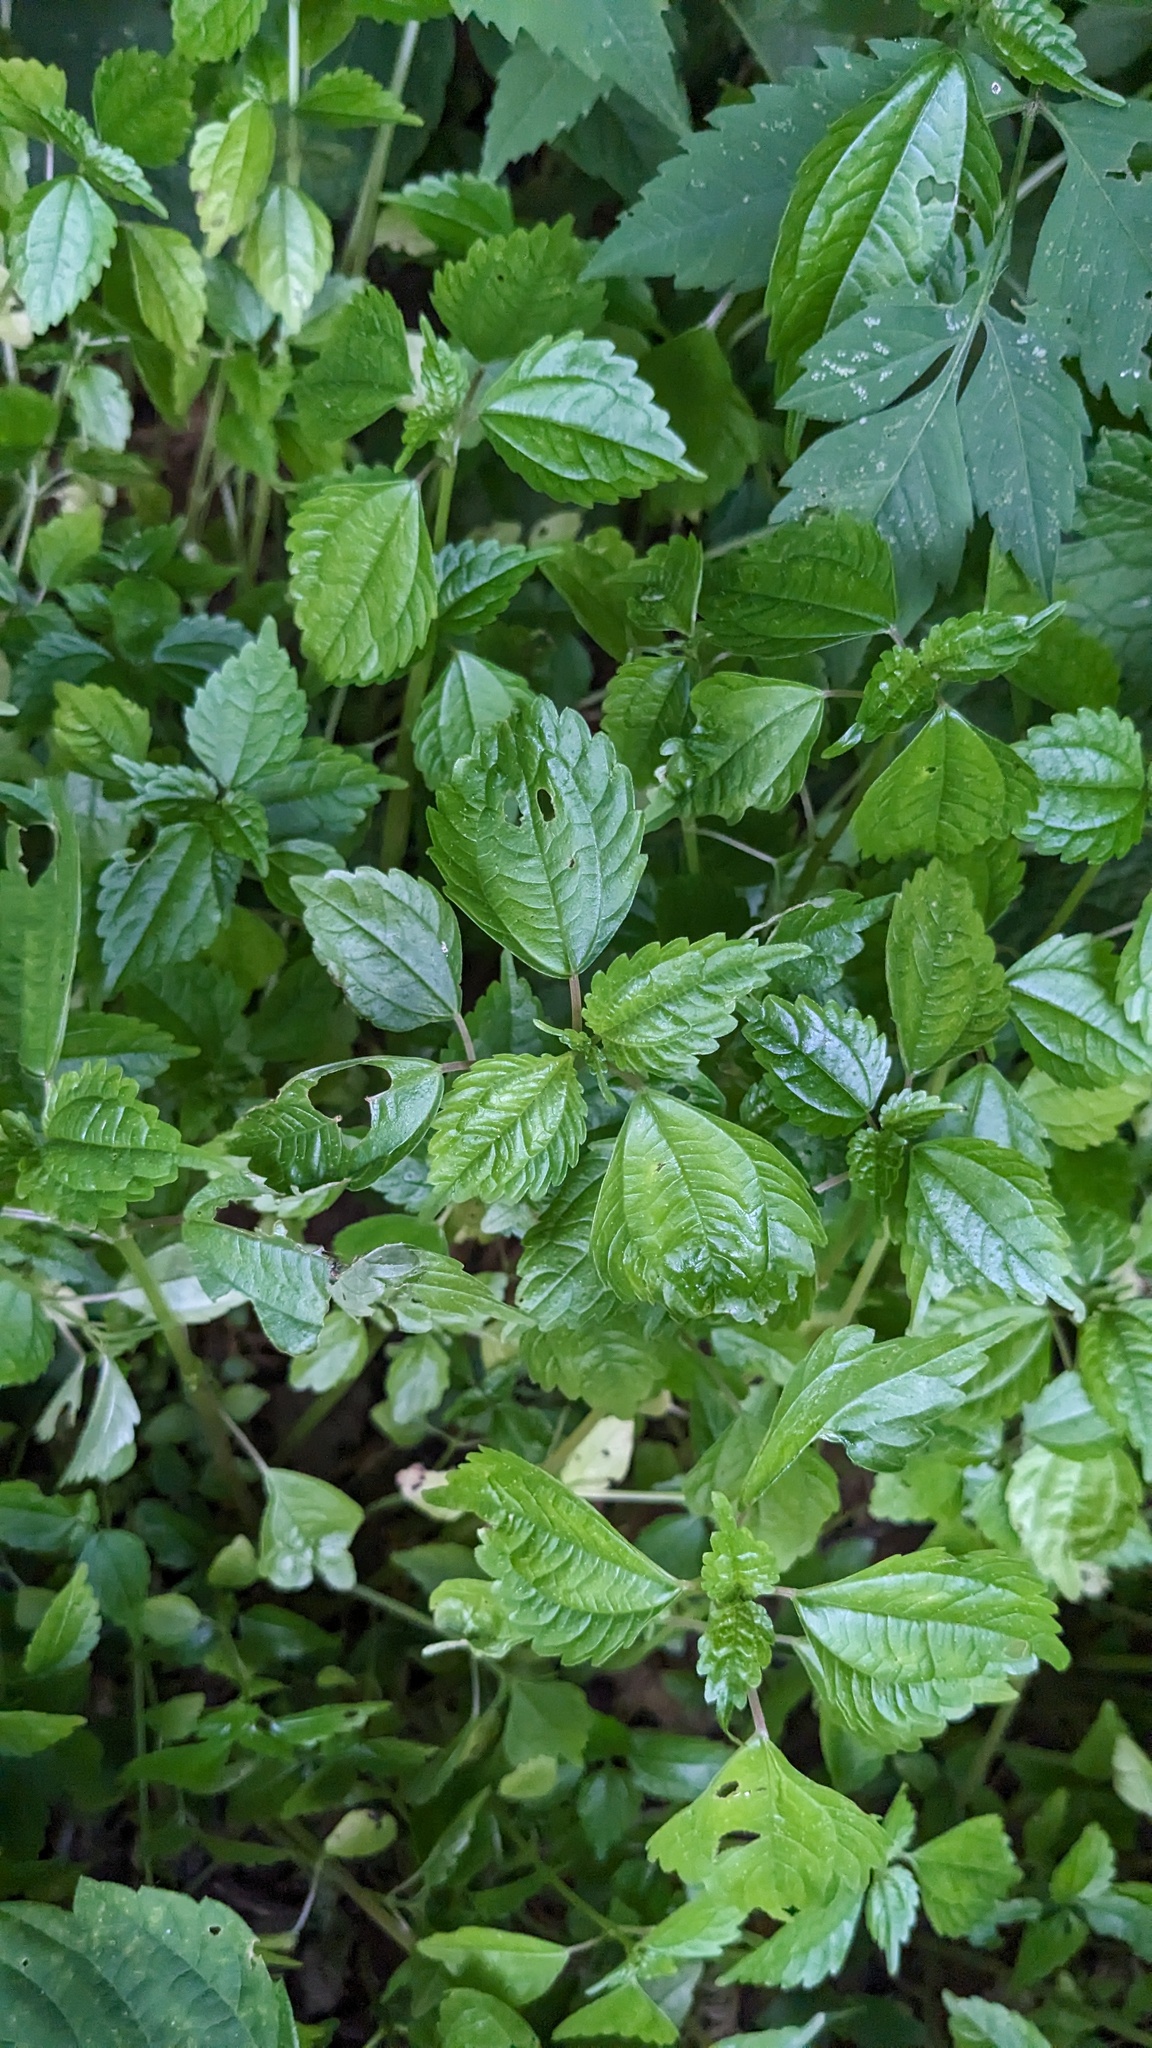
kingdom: Plantae
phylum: Tracheophyta
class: Magnoliopsida
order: Rosales
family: Urticaceae
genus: Pilea
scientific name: Pilea
